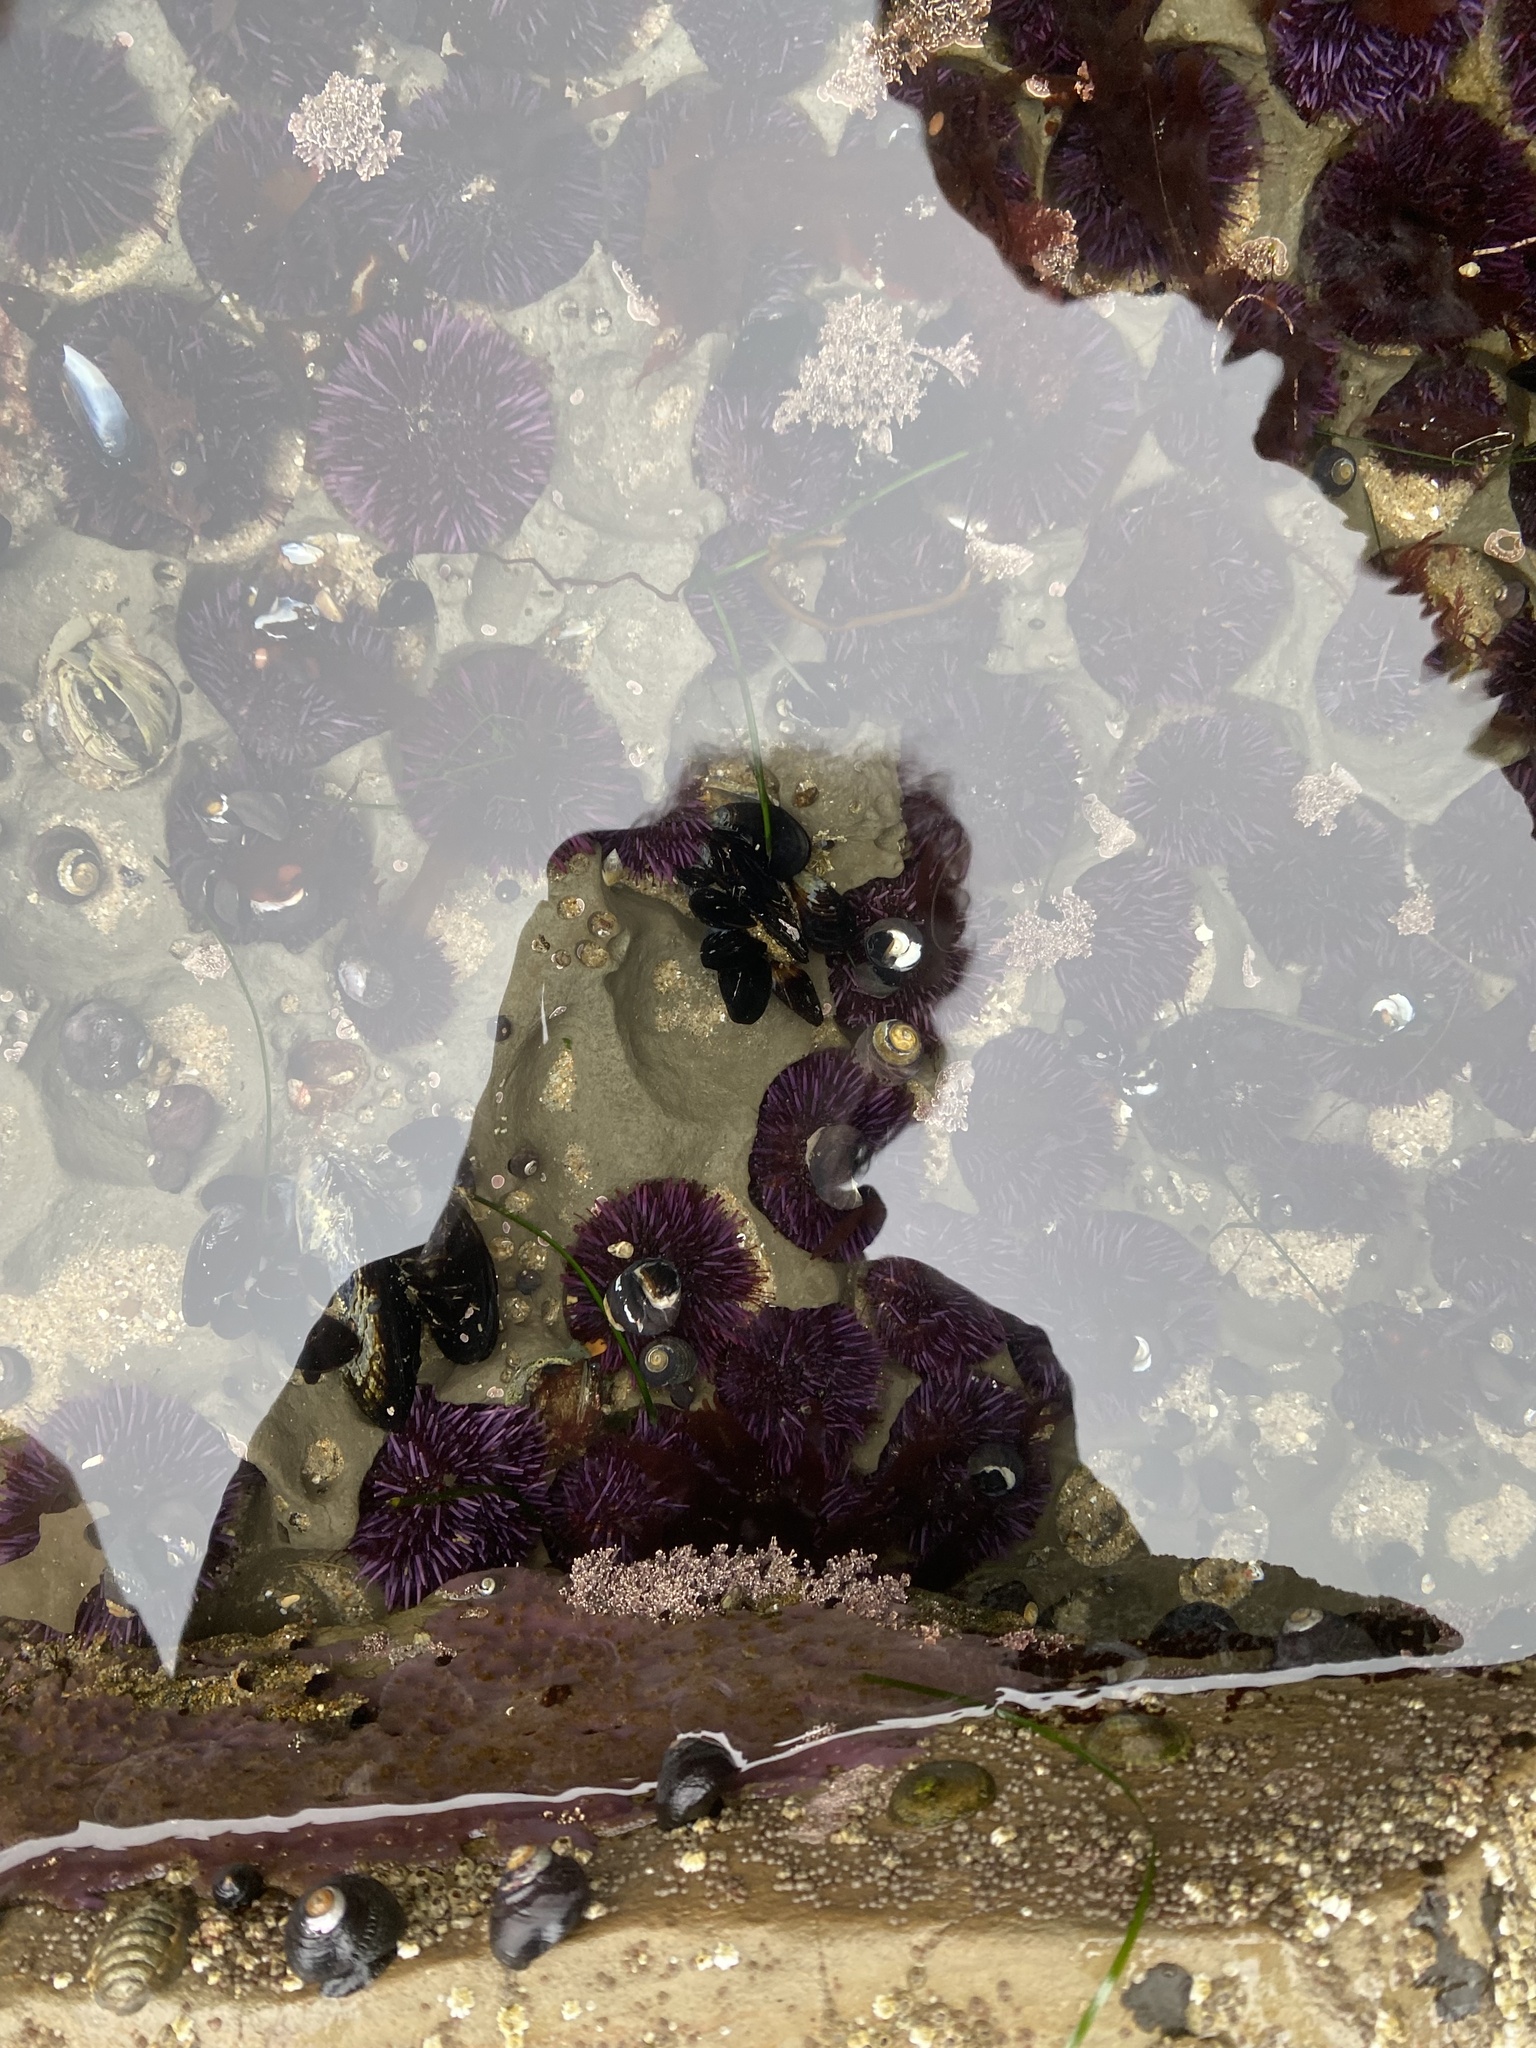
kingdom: Animalia
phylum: Echinodermata
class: Echinoidea
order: Camarodonta
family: Strongylocentrotidae
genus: Strongylocentrotus
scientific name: Strongylocentrotus purpuratus
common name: Purple sea urchin
